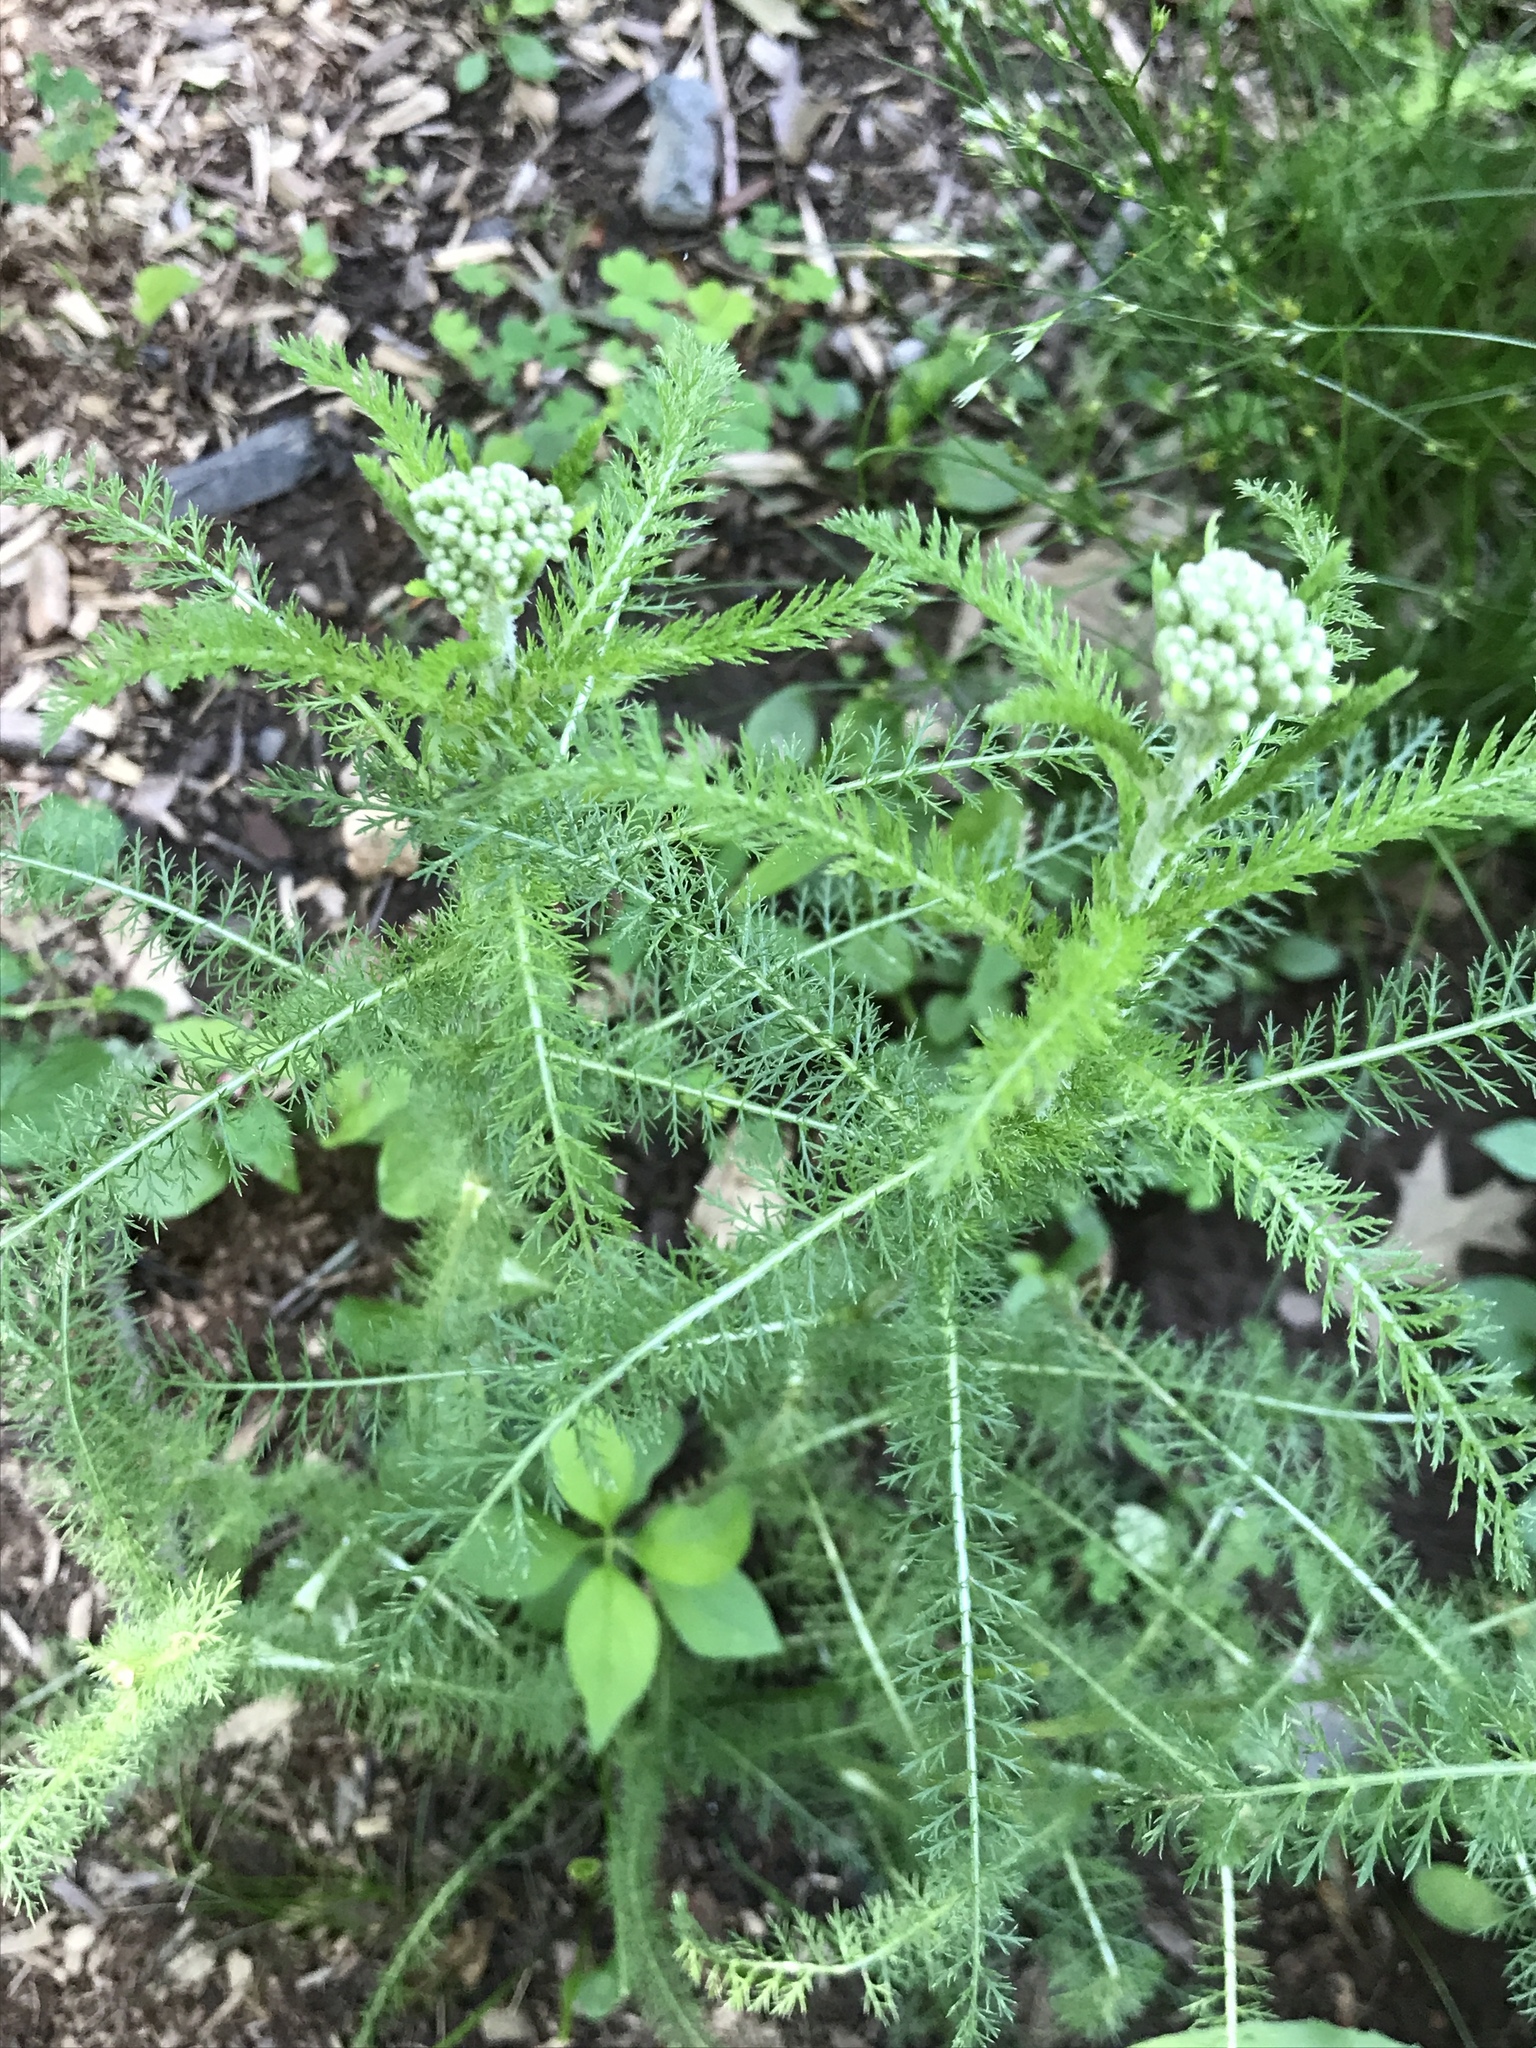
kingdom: Plantae
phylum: Tracheophyta
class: Magnoliopsida
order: Asterales
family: Asteraceae
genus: Achillea
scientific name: Achillea millefolium
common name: Yarrow
